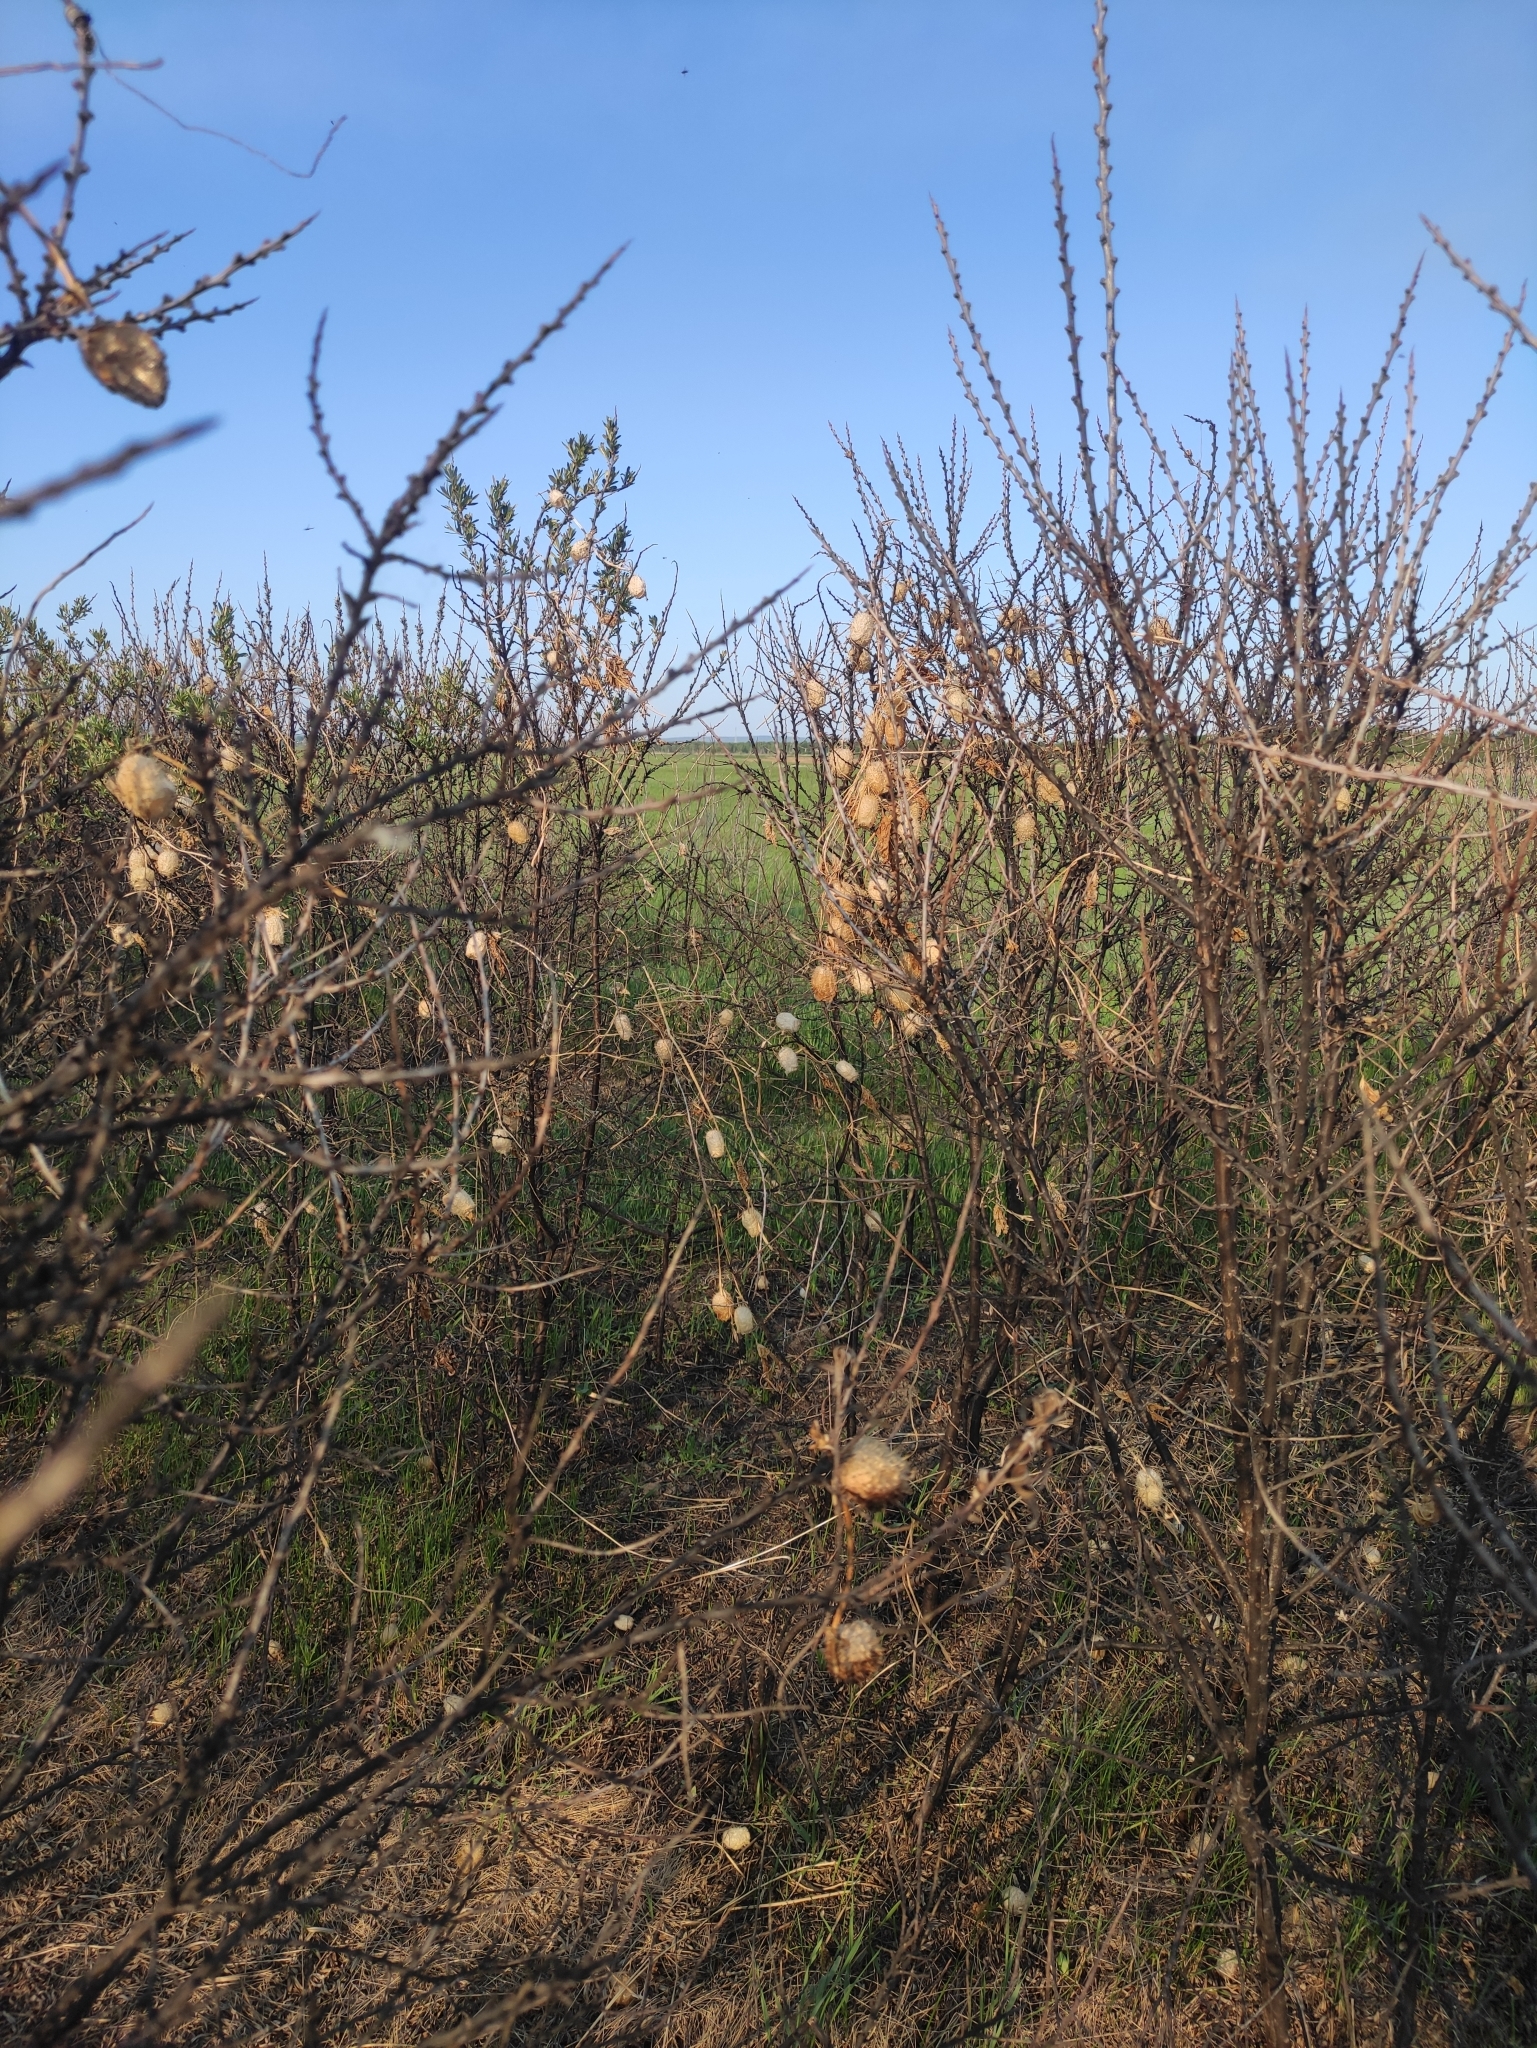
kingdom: Plantae
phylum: Tracheophyta
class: Magnoliopsida
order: Cucurbitales
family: Cucurbitaceae
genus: Echinocystis
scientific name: Echinocystis lobata
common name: Wild cucumber
